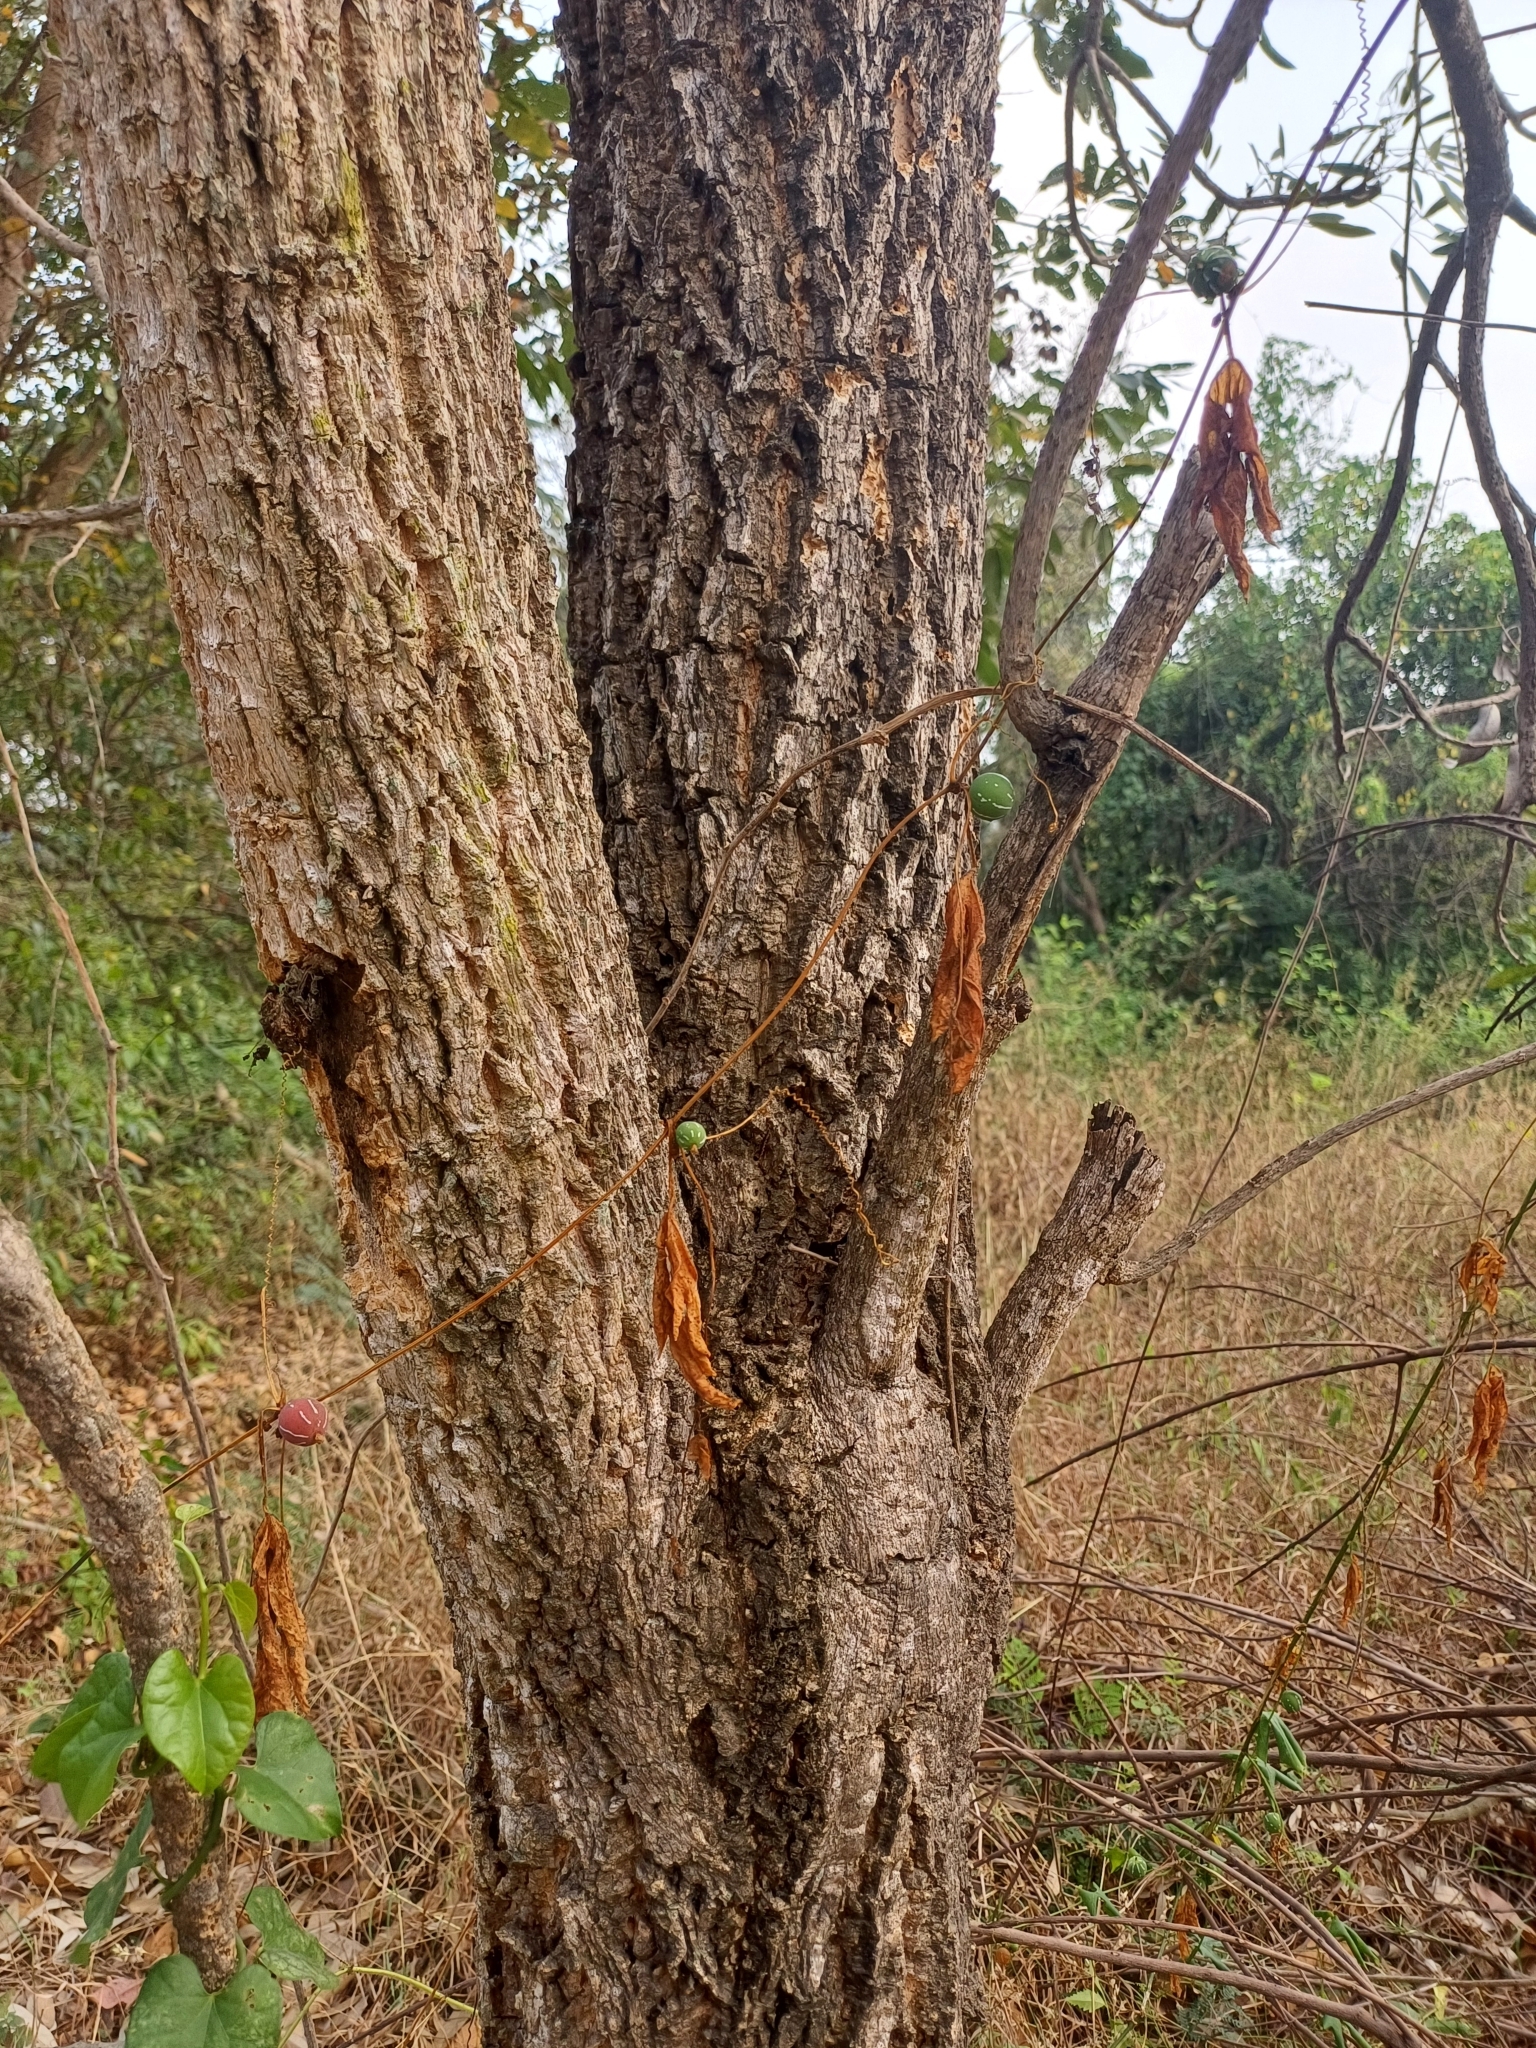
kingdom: Plantae
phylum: Tracheophyta
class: Magnoliopsida
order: Lamiales
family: Bignoniaceae
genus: Tabebuia
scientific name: Tabebuia aurea
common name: Caribbean trumpet-tree
